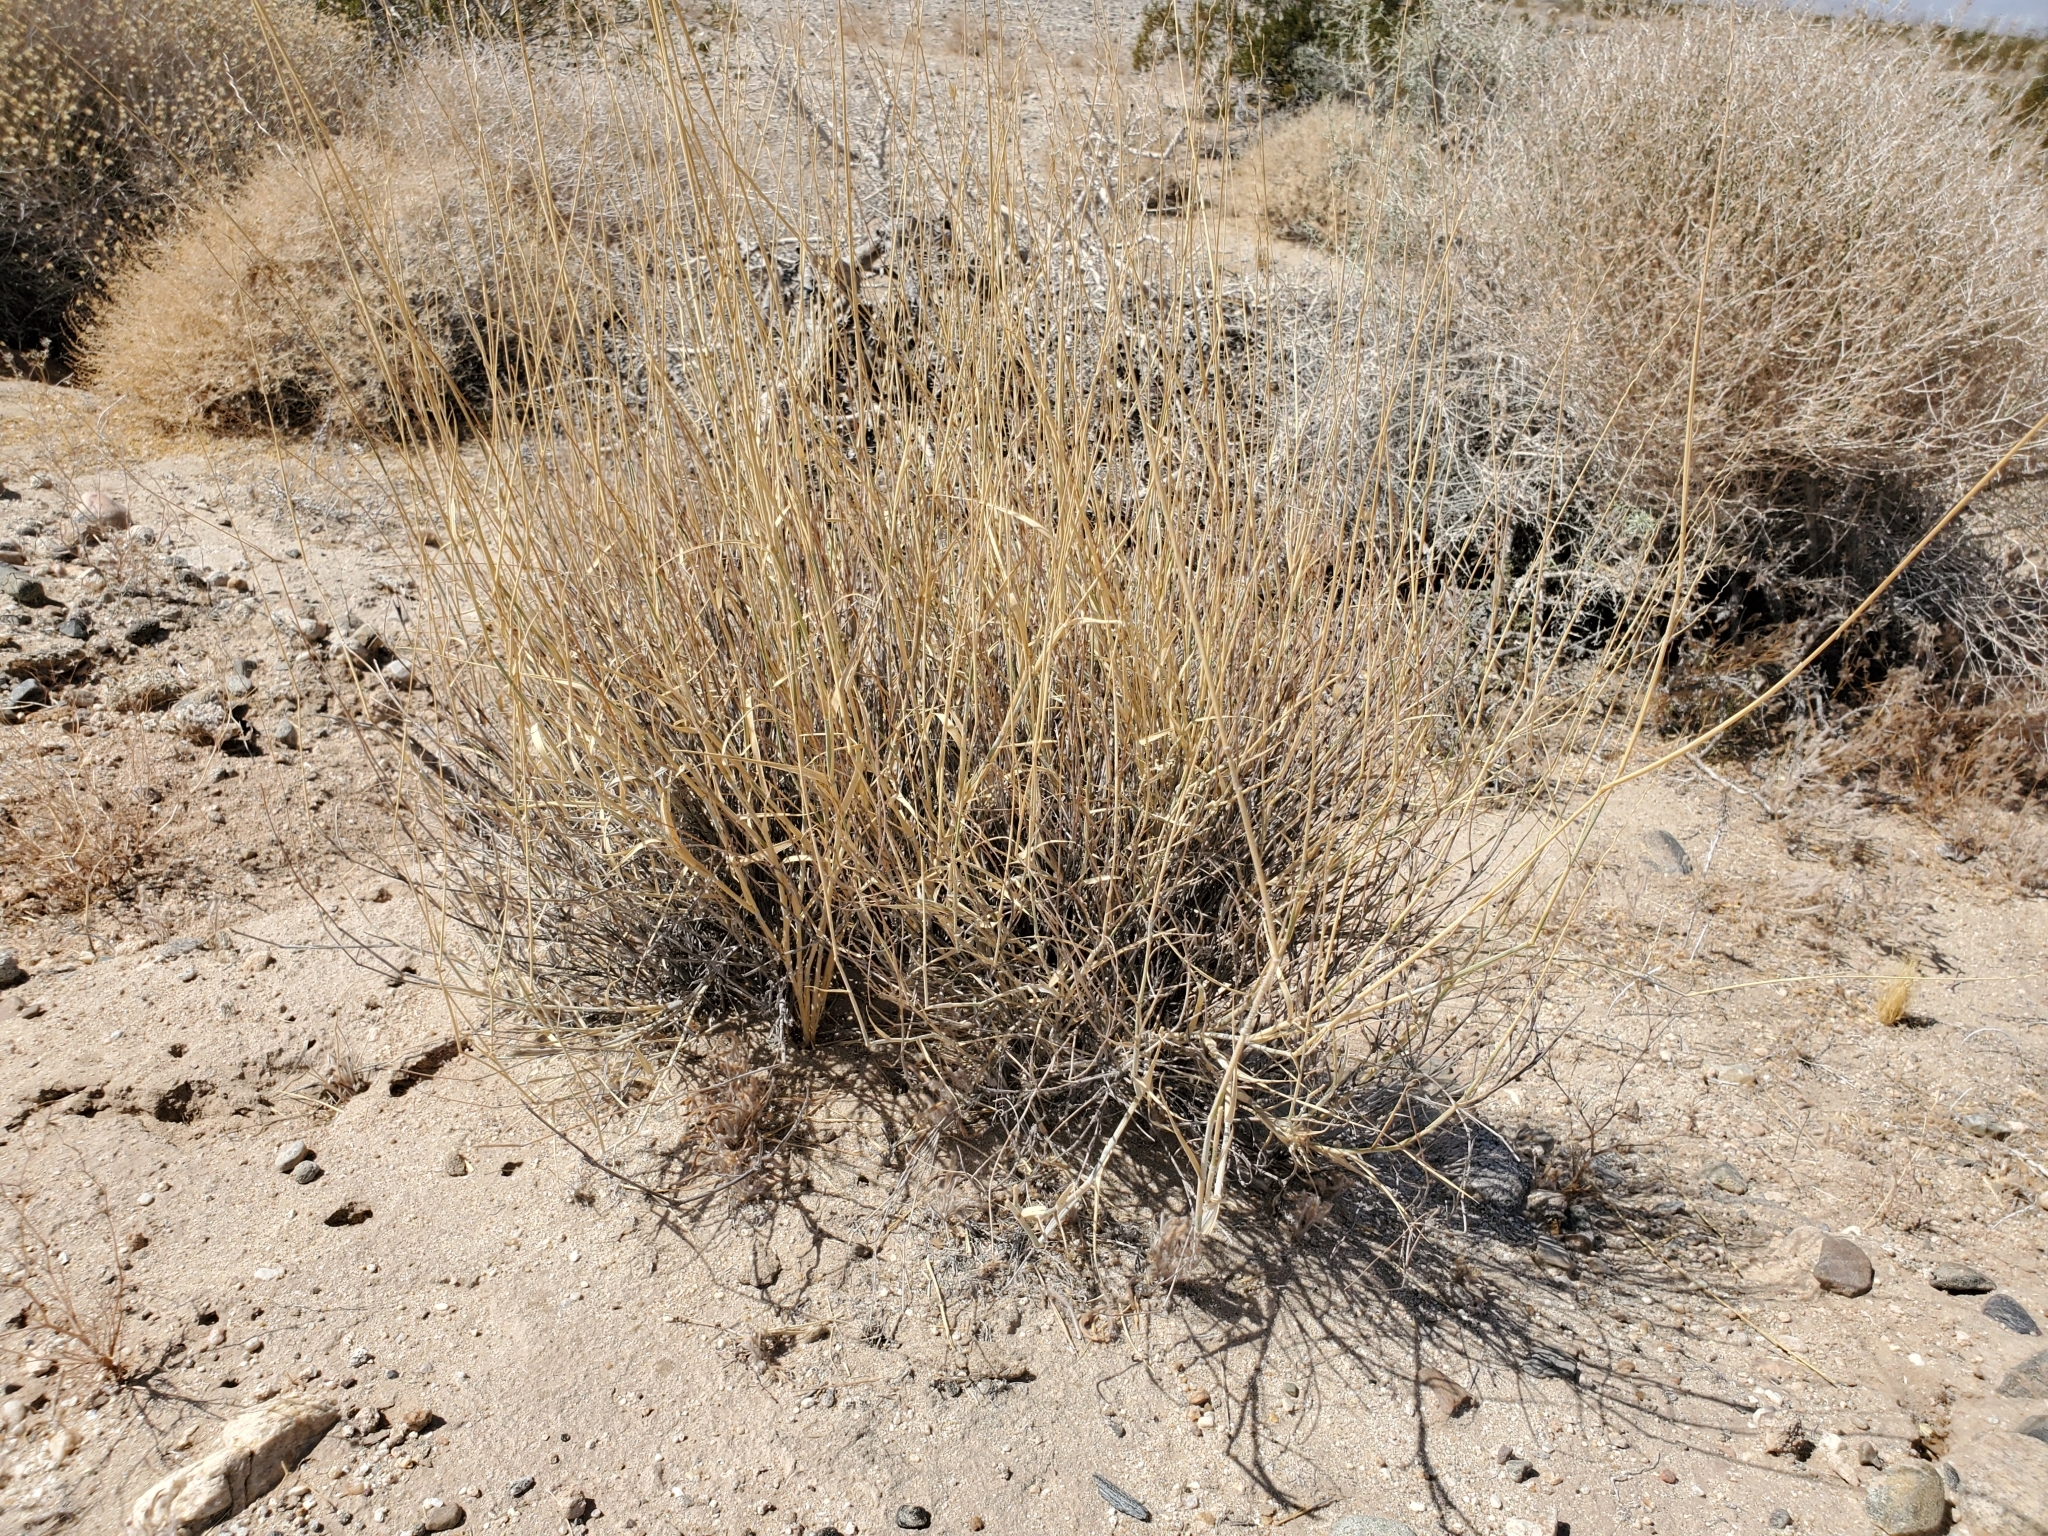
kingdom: Plantae
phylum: Tracheophyta
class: Liliopsida
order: Poales
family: Poaceae
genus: Hilaria
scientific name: Hilaria rigida
